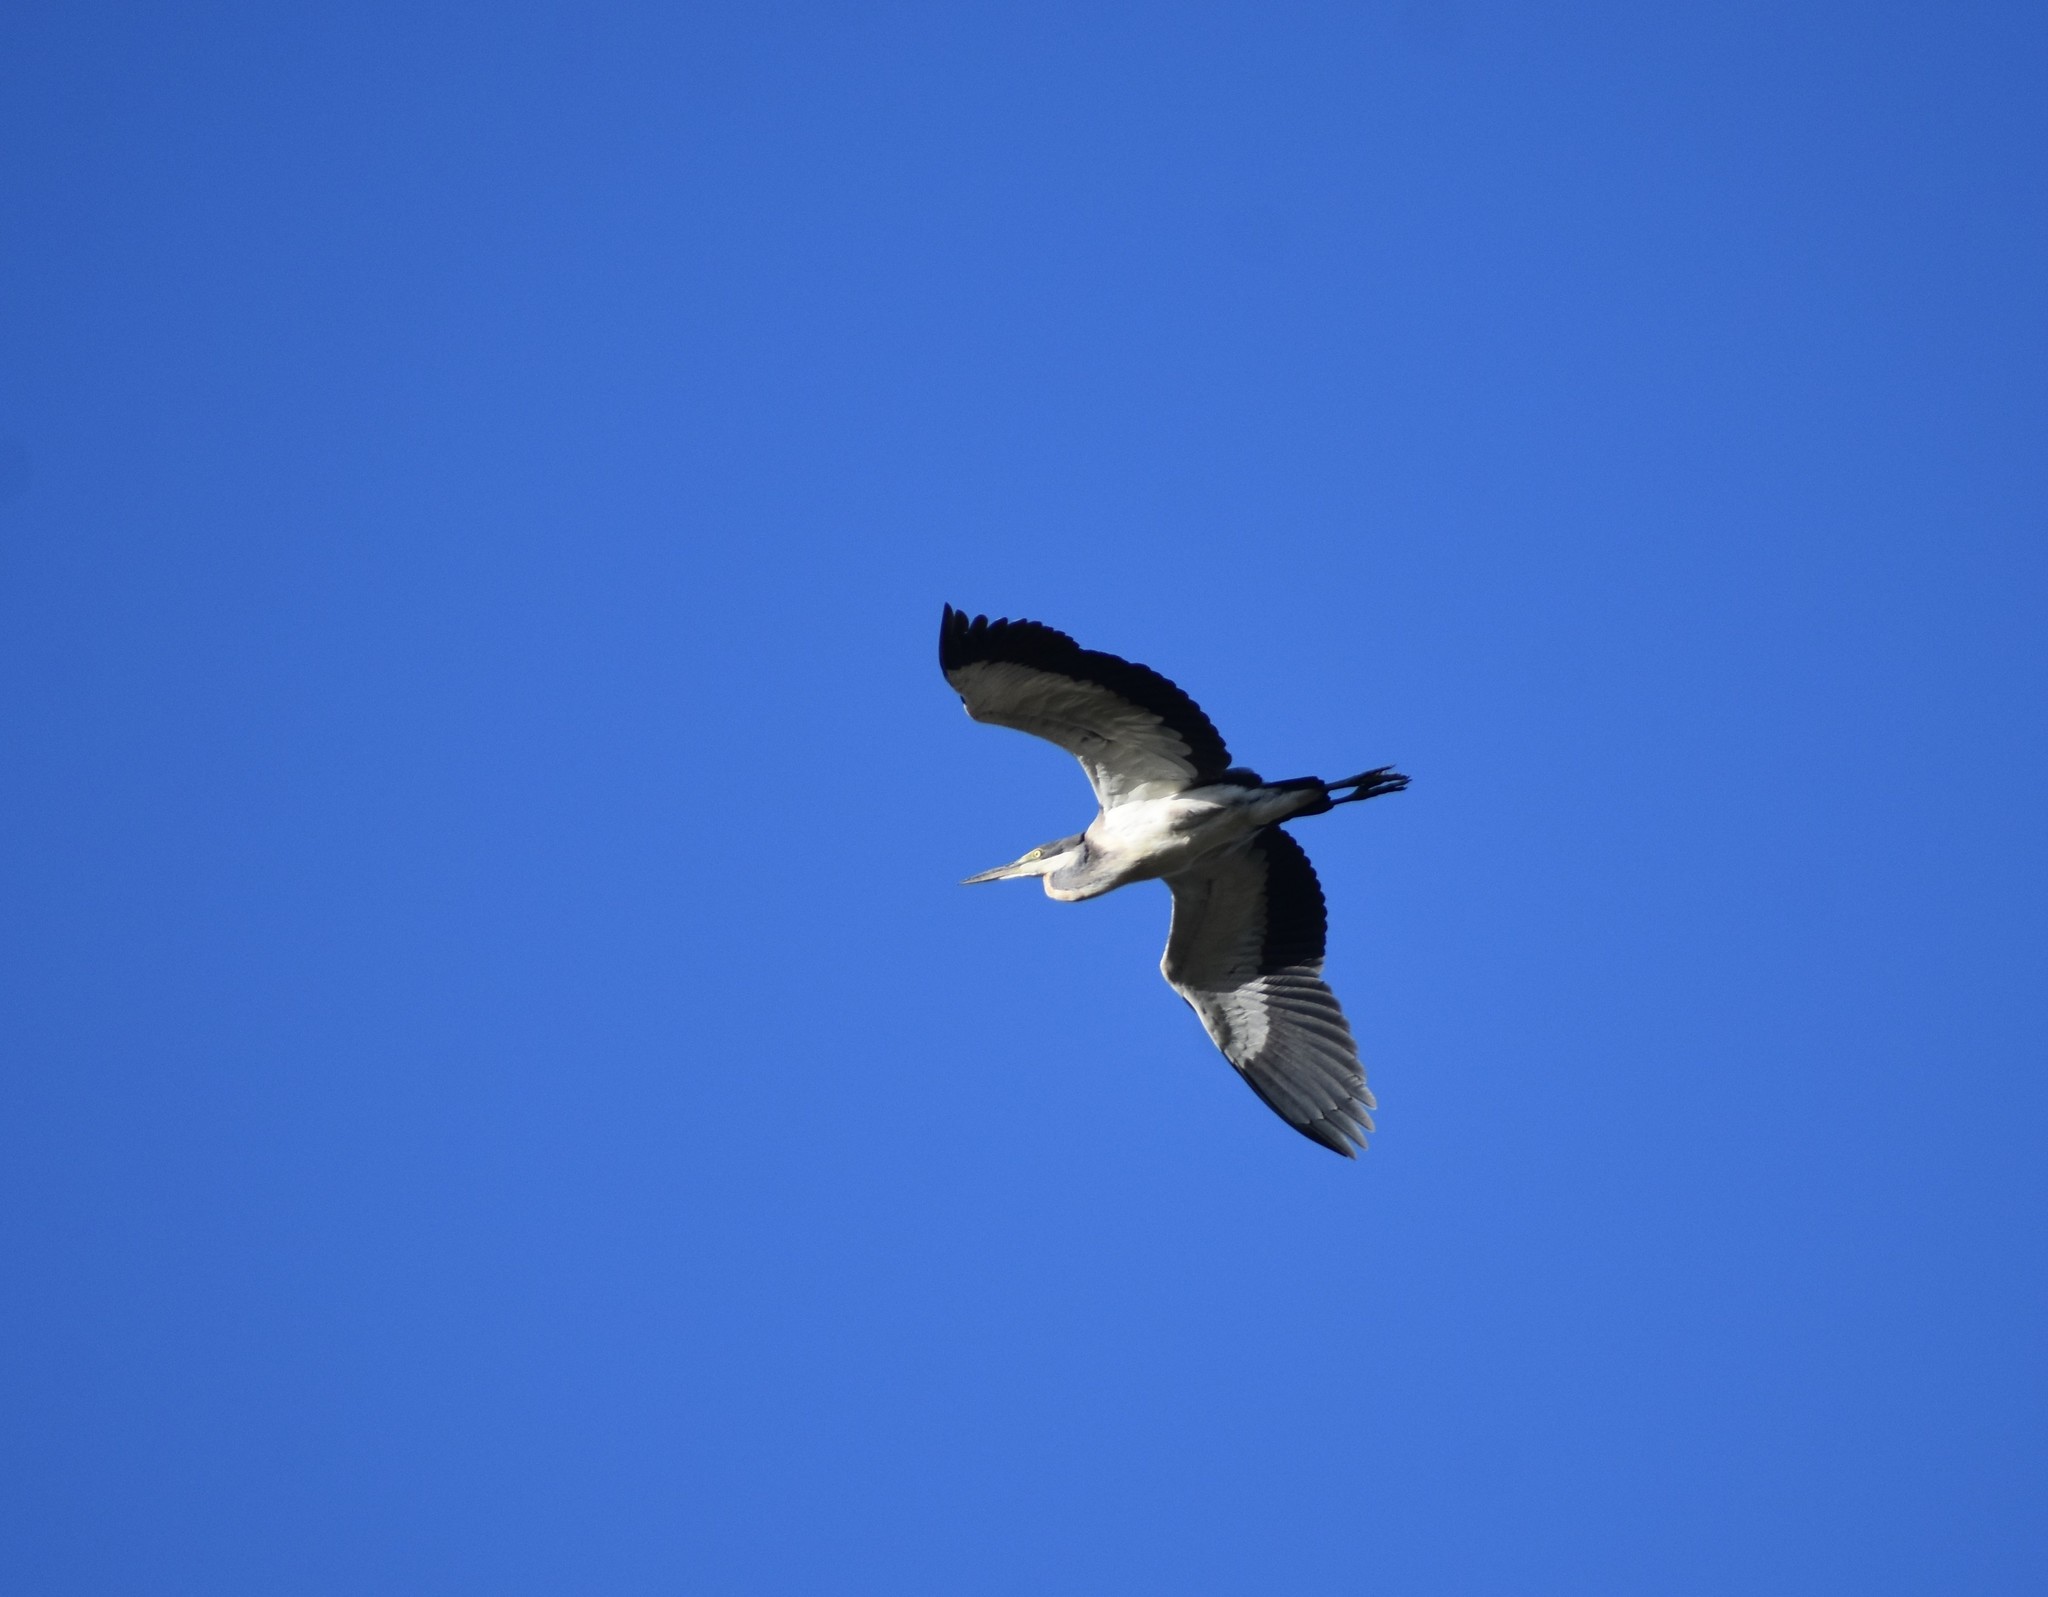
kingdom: Animalia
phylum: Chordata
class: Aves
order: Pelecaniformes
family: Ardeidae
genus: Ardea
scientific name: Ardea melanocephala
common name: Black-headed heron
